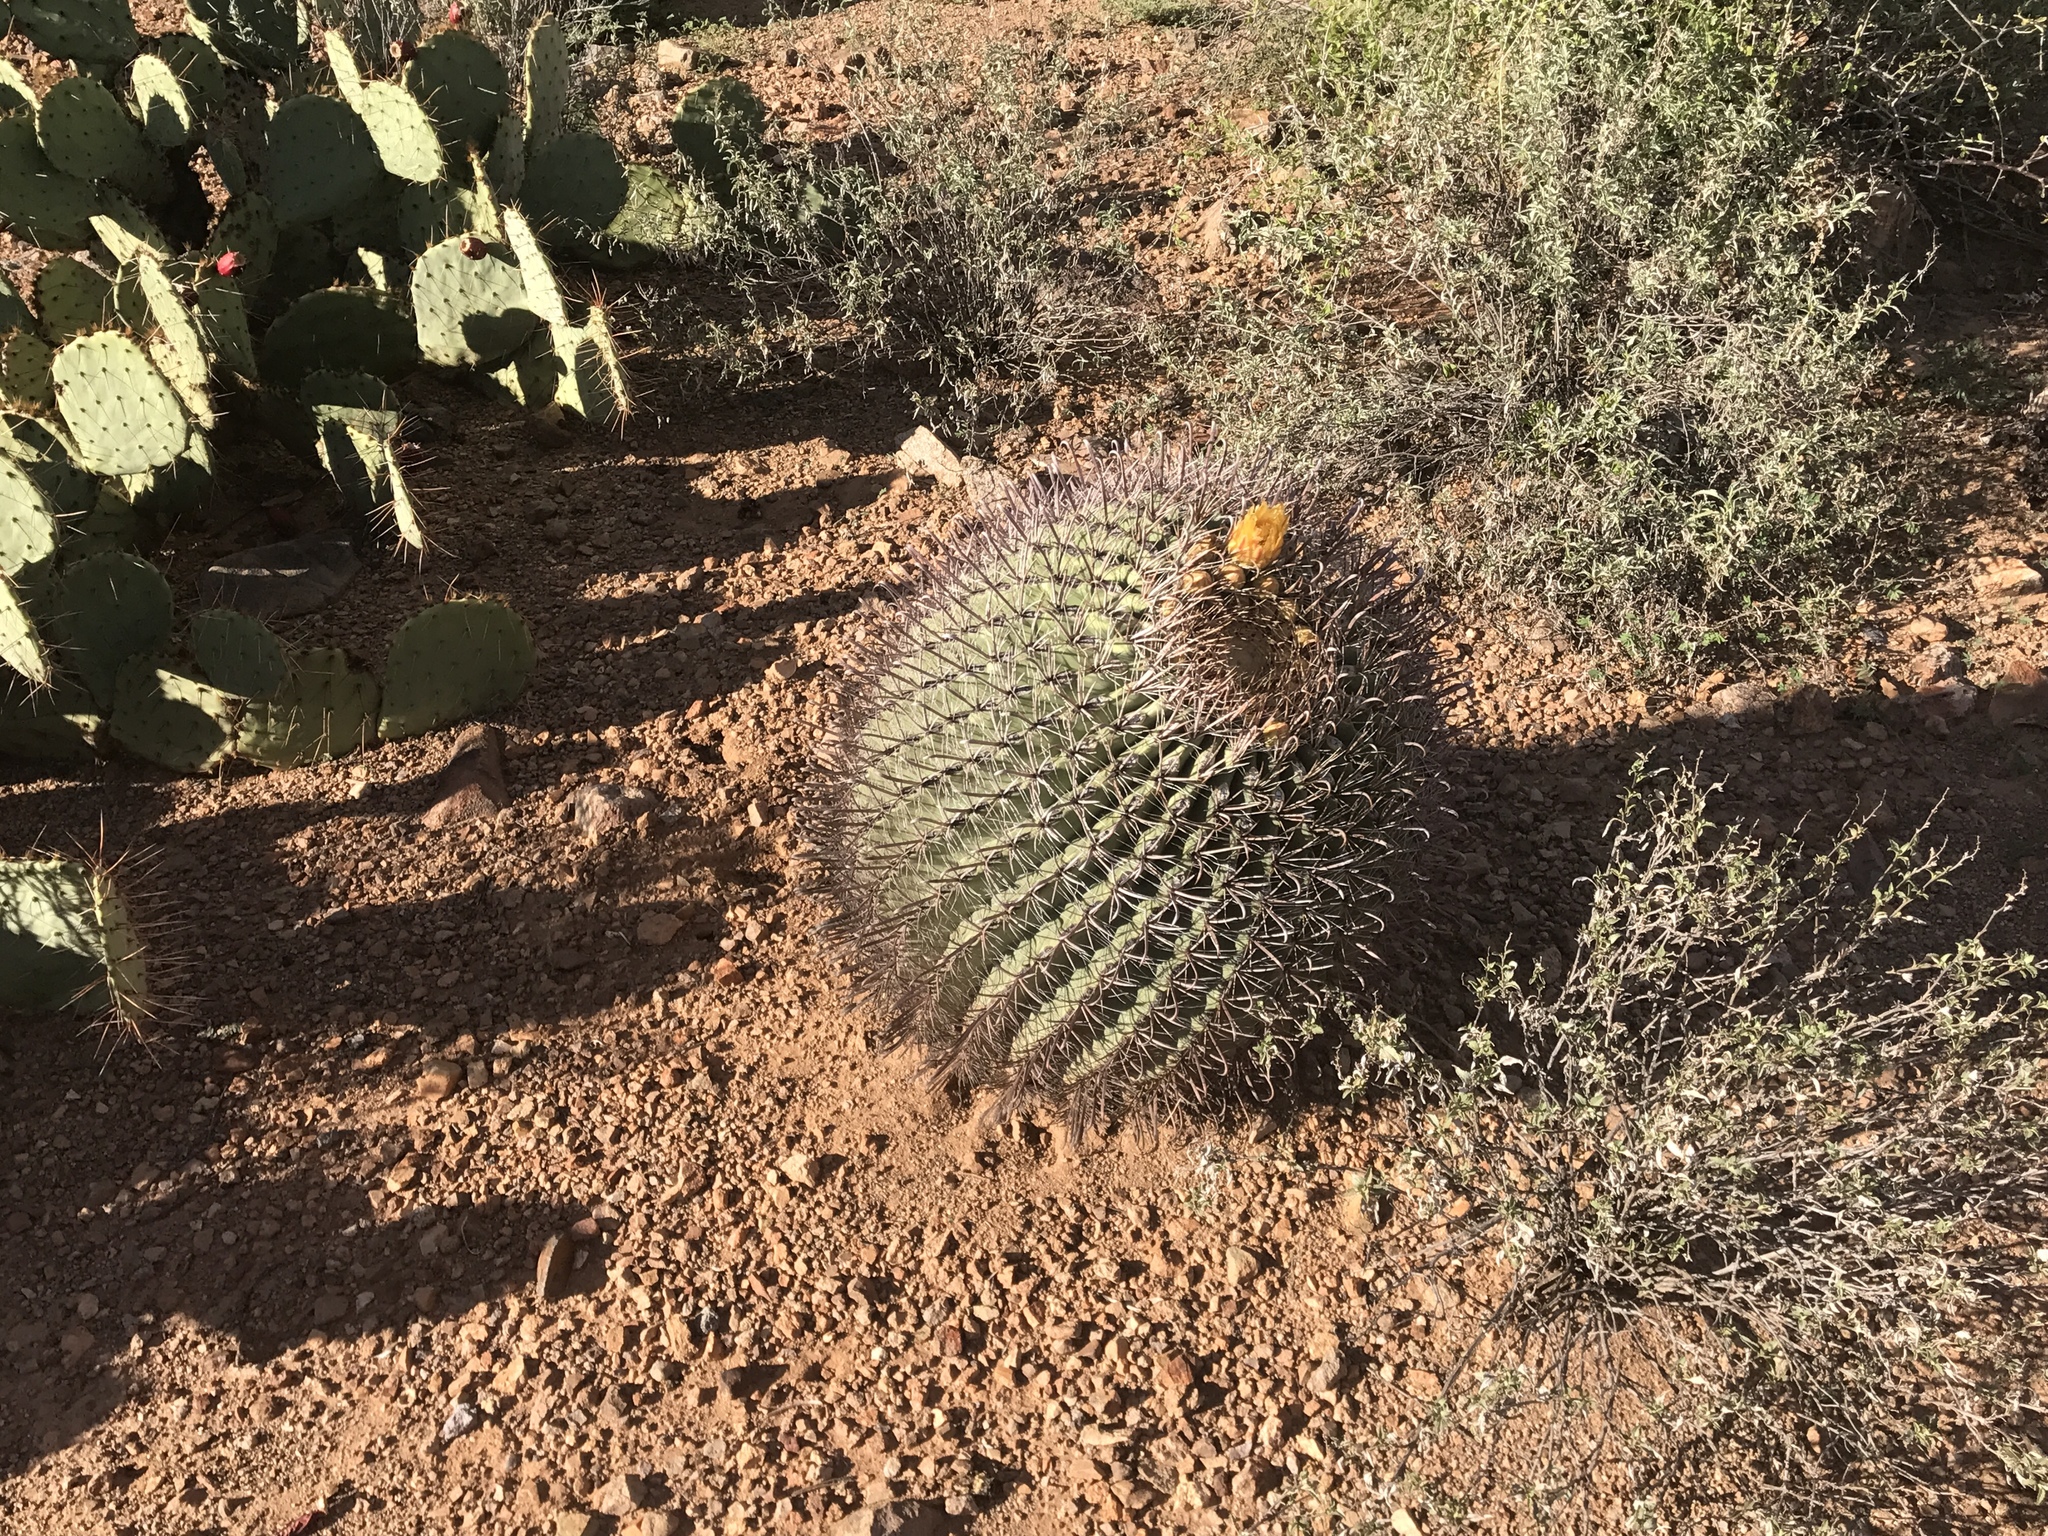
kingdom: Plantae
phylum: Tracheophyta
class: Magnoliopsida
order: Caryophyllales
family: Cactaceae
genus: Ferocactus
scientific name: Ferocactus wislizeni
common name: Candy barrel cactus
